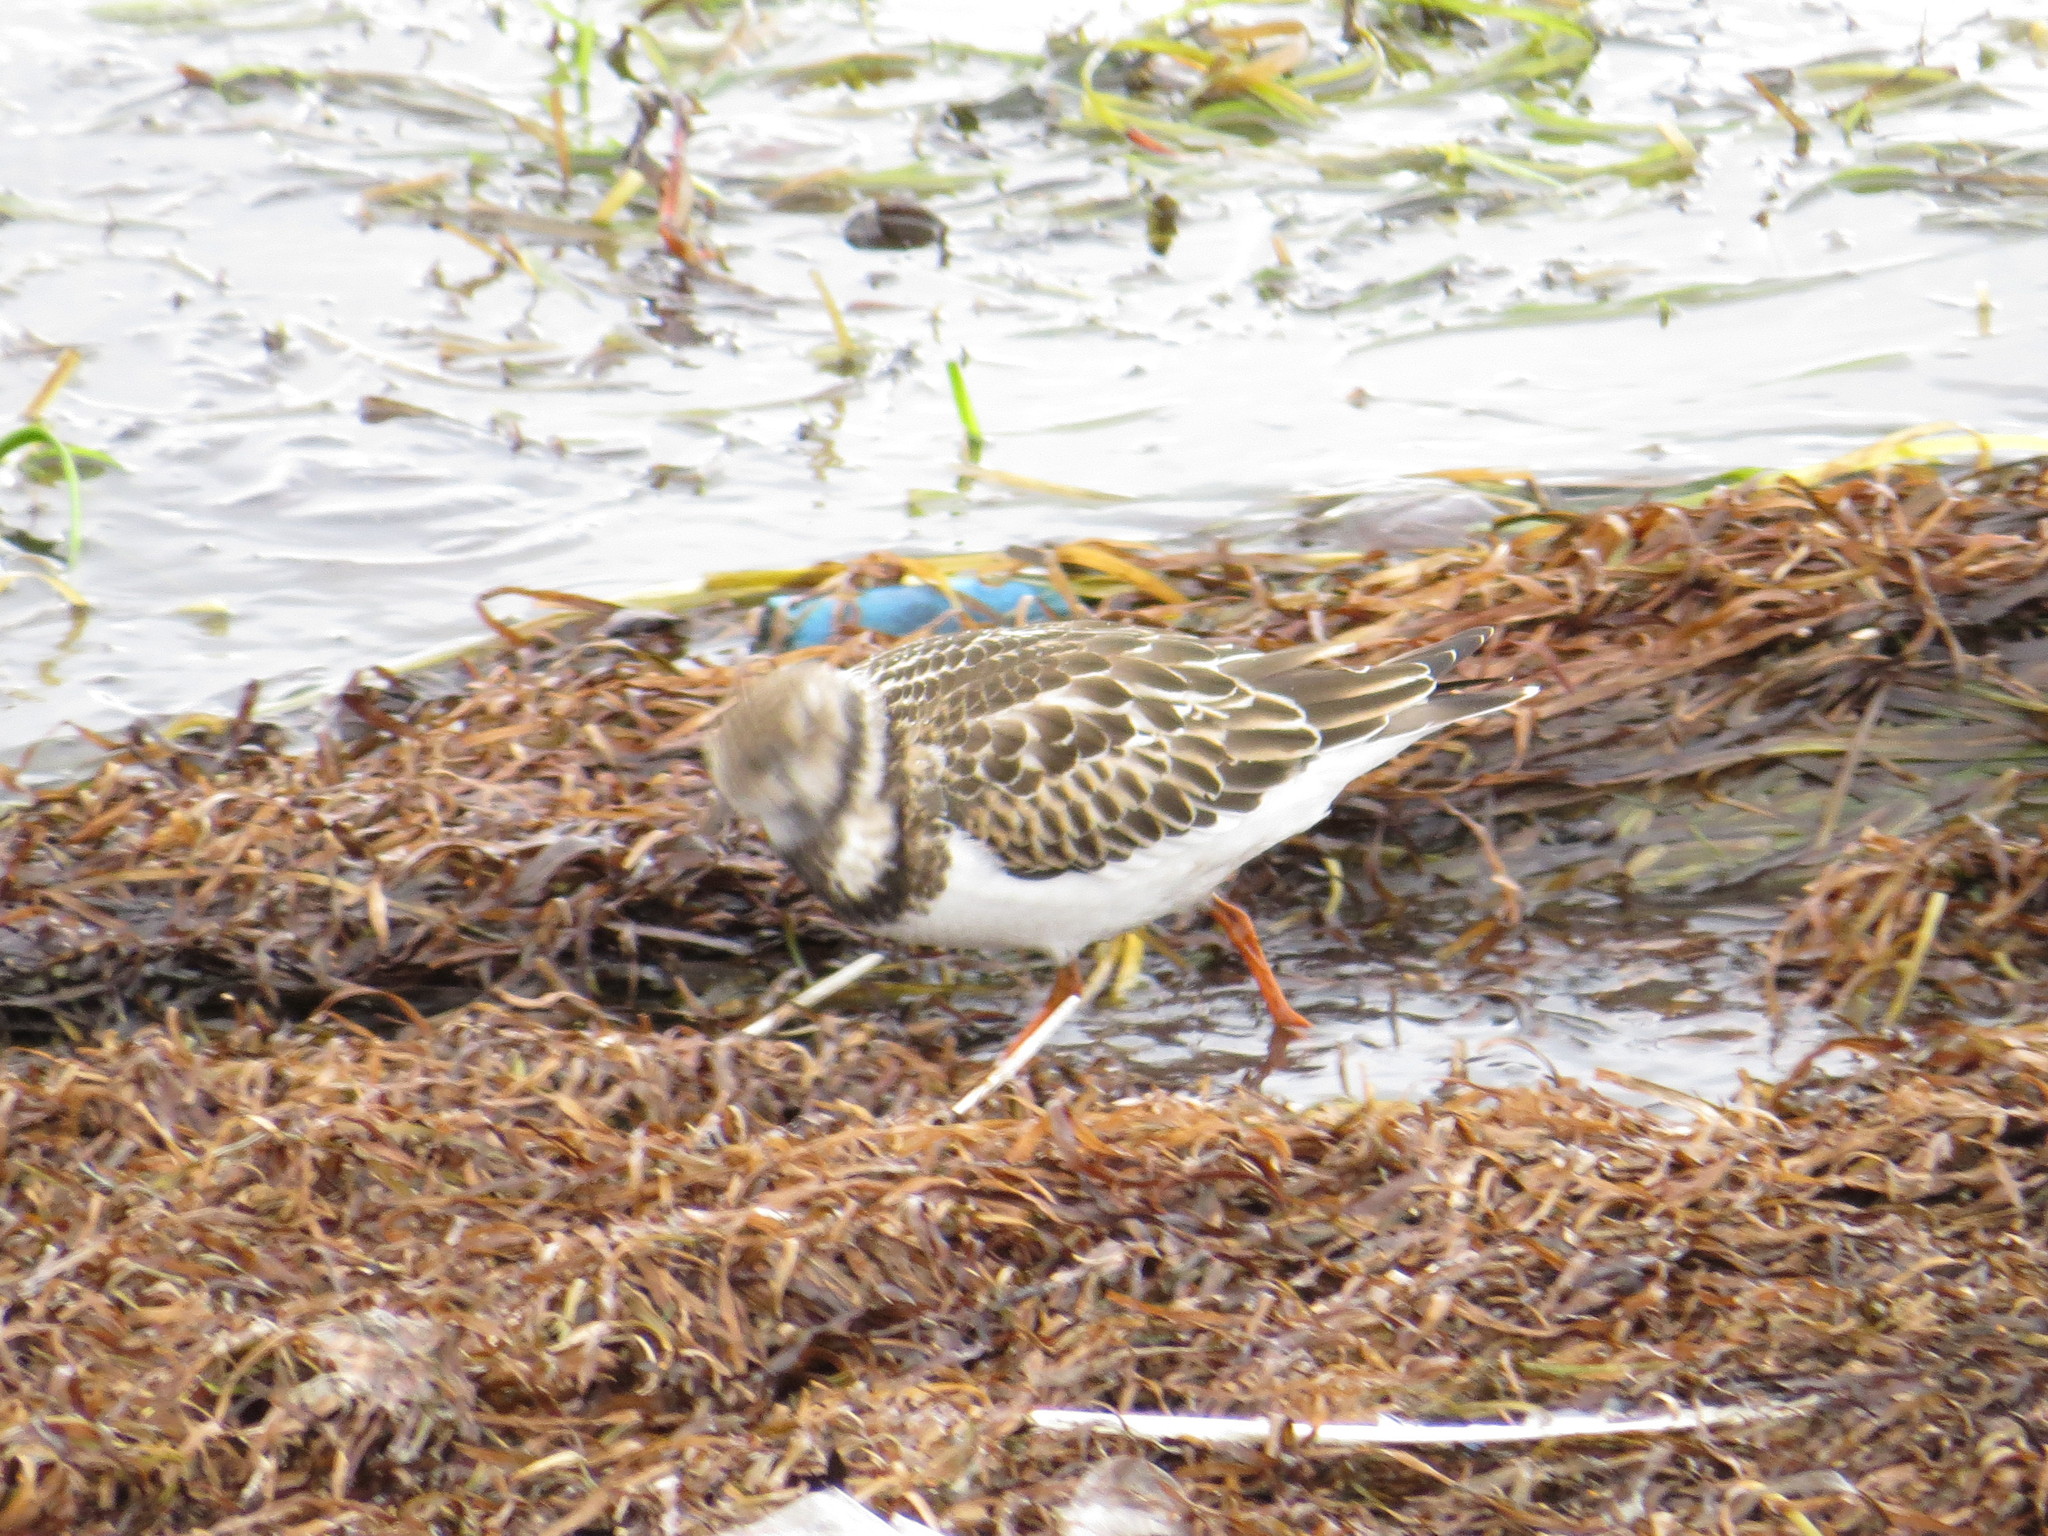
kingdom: Animalia
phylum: Chordata
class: Aves
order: Charadriiformes
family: Scolopacidae
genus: Arenaria
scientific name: Arenaria interpres
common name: Ruddy turnstone
